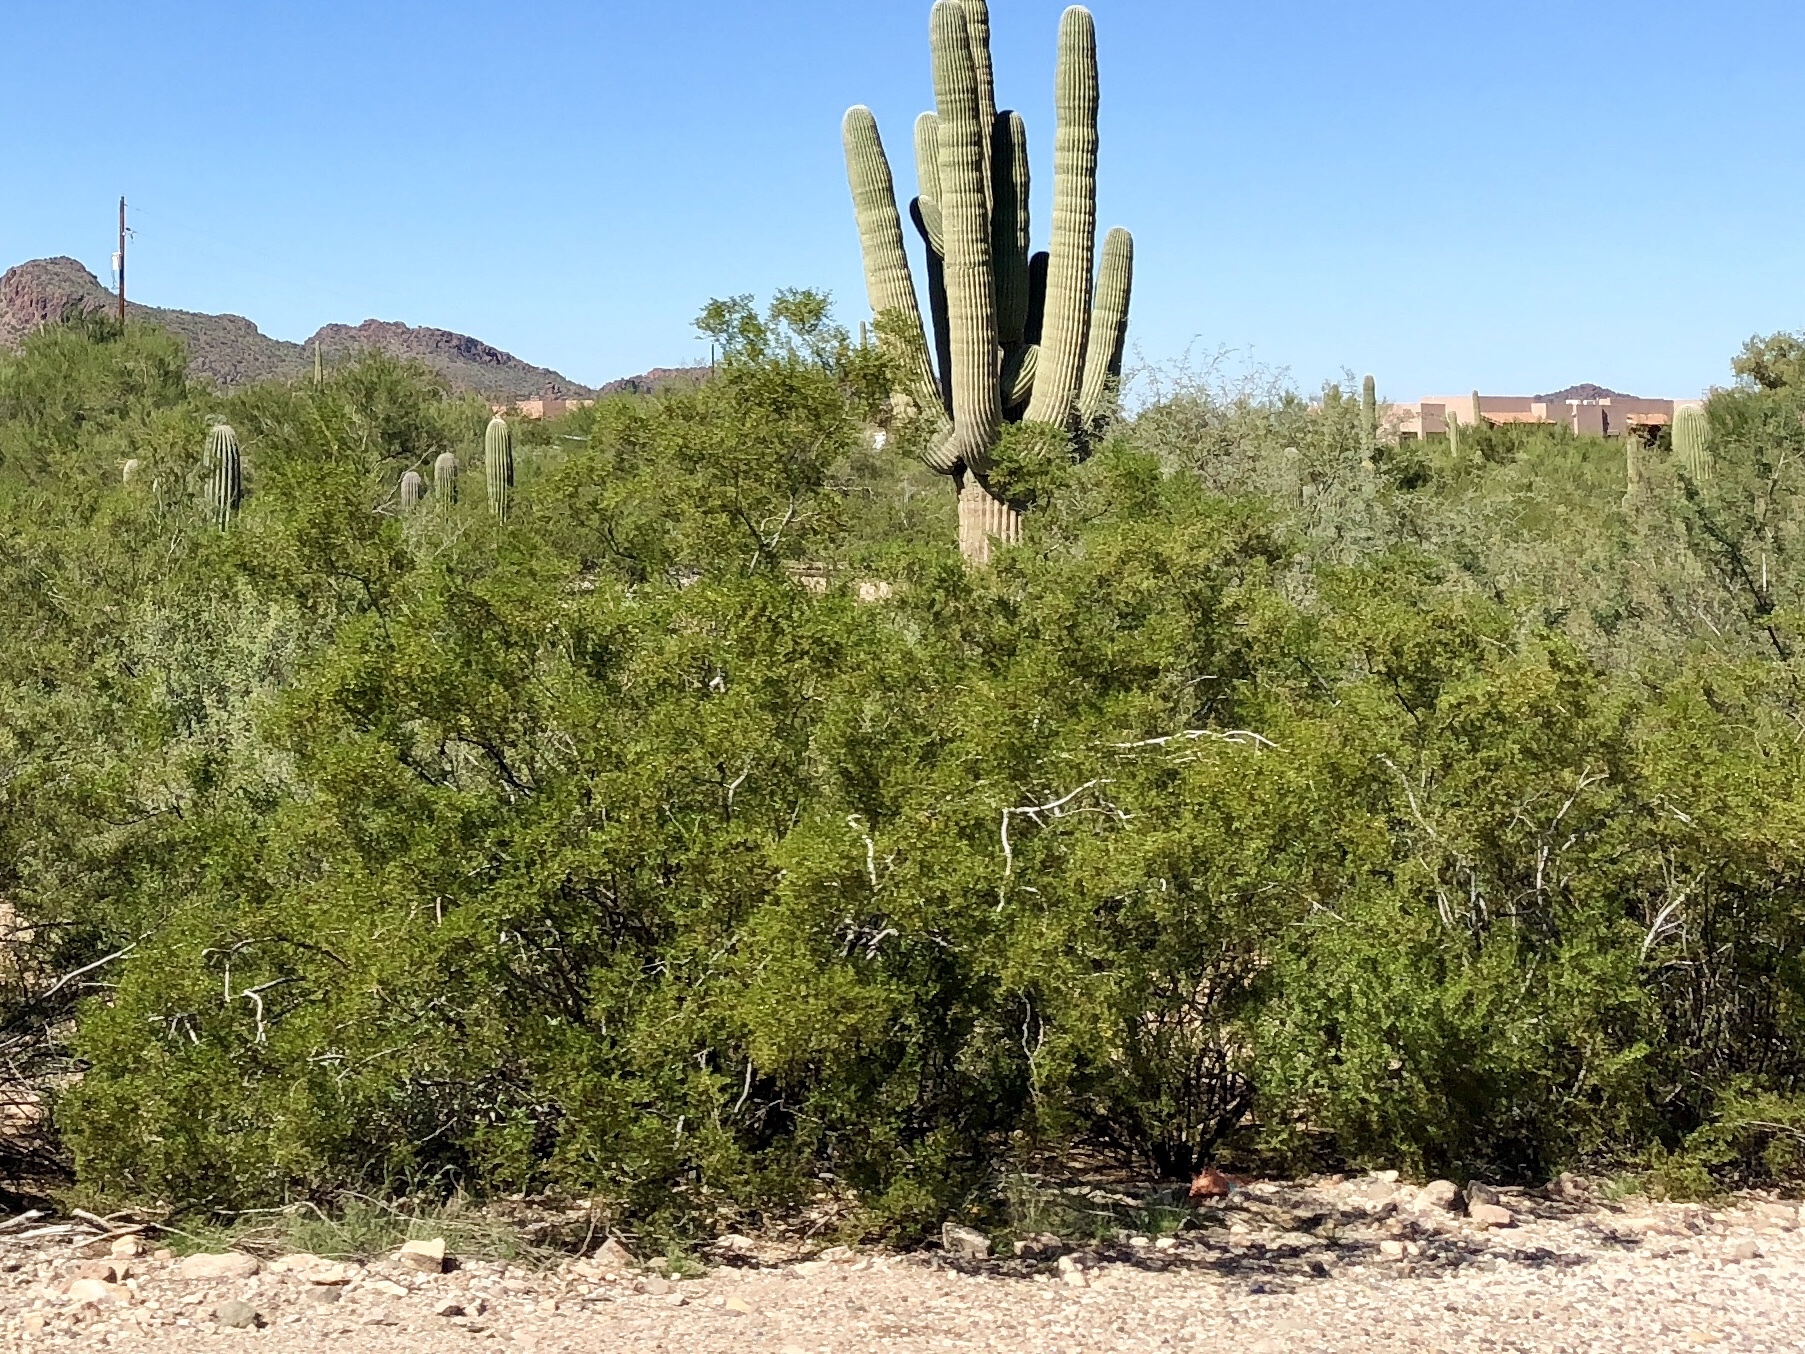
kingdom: Plantae
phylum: Tracheophyta
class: Magnoliopsida
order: Zygophyllales
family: Zygophyllaceae
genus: Larrea
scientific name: Larrea tridentata
